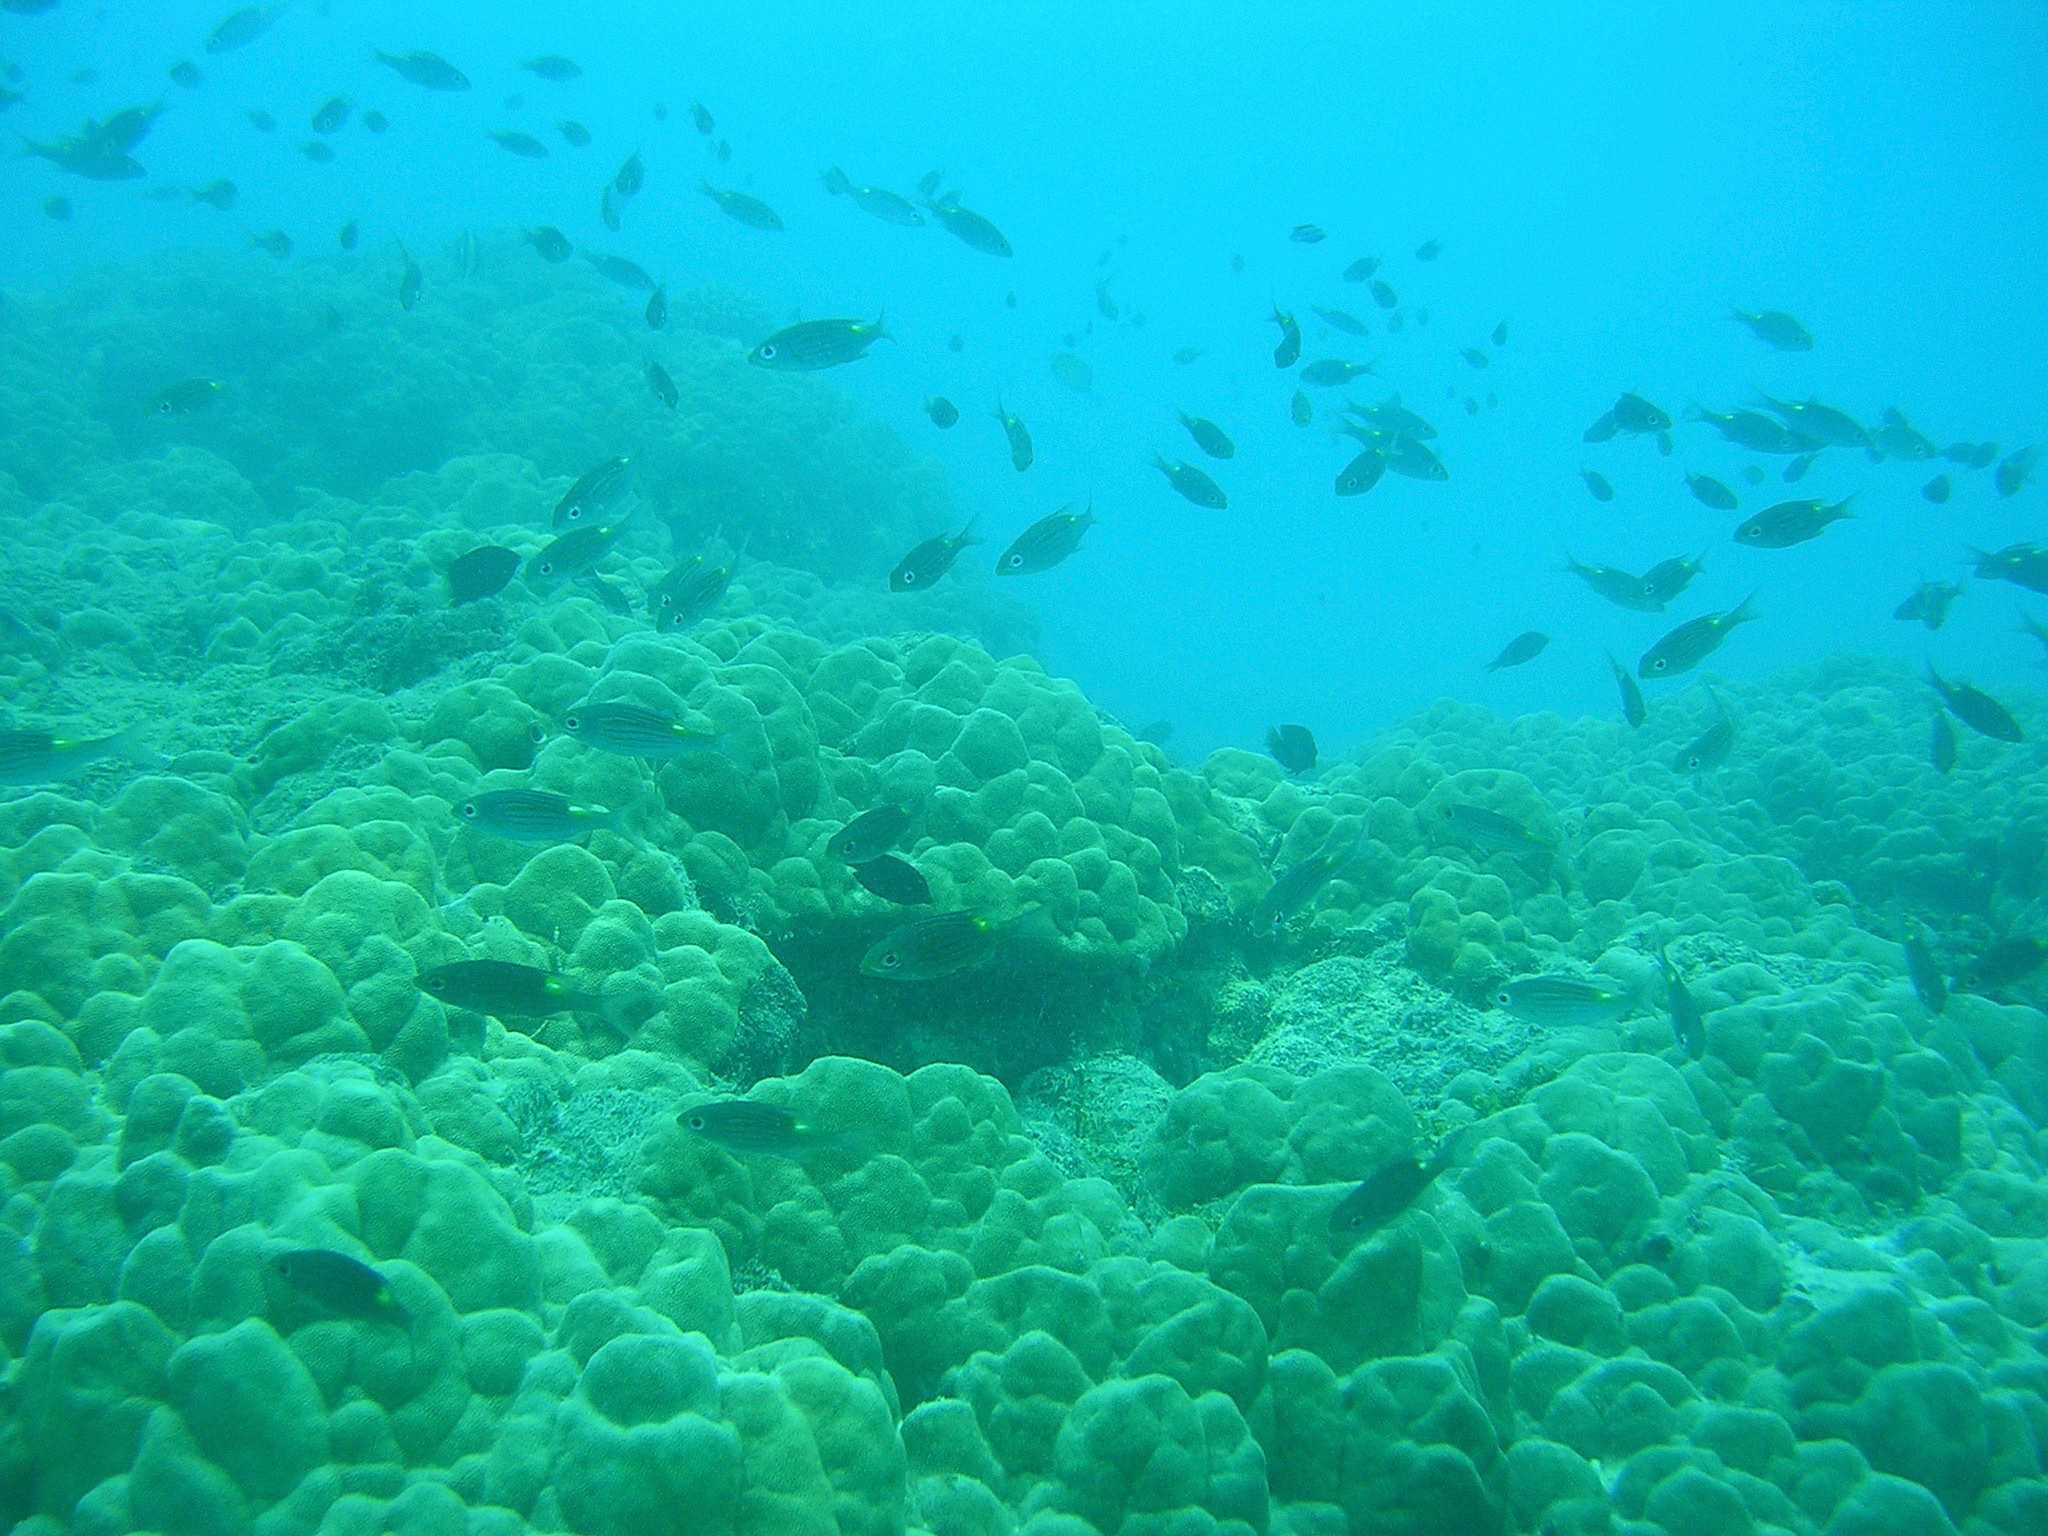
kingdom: Animalia
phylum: Chordata
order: Perciformes
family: Lethrinidae
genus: Gnathodentex
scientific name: Gnathodentex aureolineatus
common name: Gold-lined sea bream
